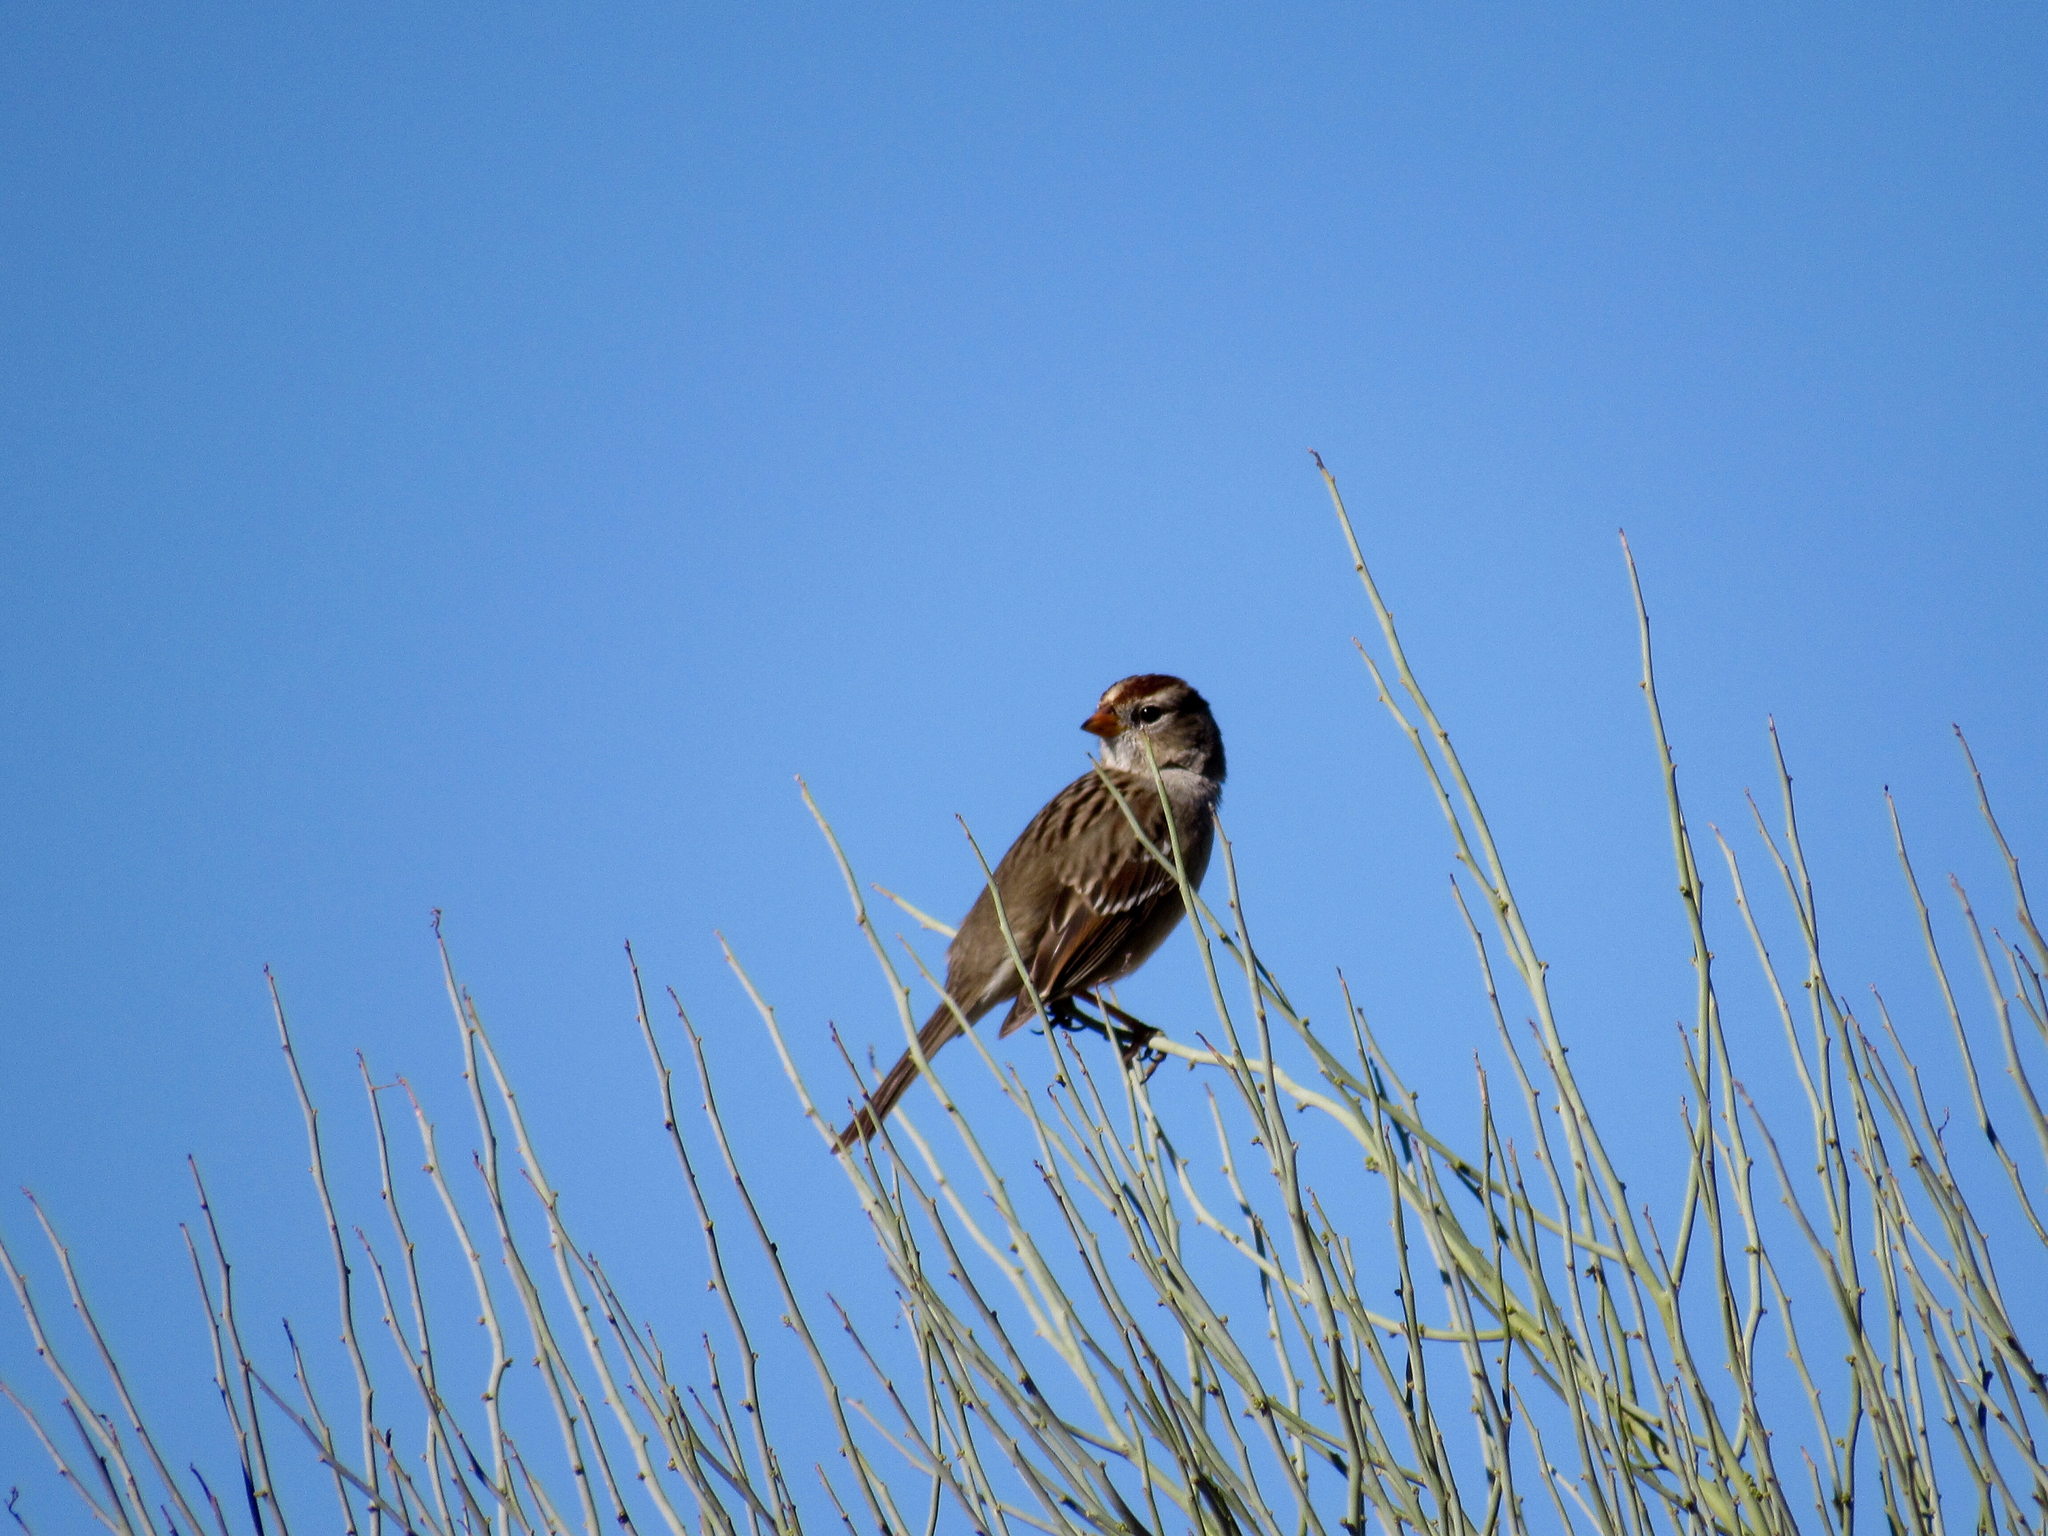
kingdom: Animalia
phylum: Chordata
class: Aves
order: Passeriformes
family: Passerellidae
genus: Zonotrichia
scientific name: Zonotrichia leucophrys
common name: White-crowned sparrow
